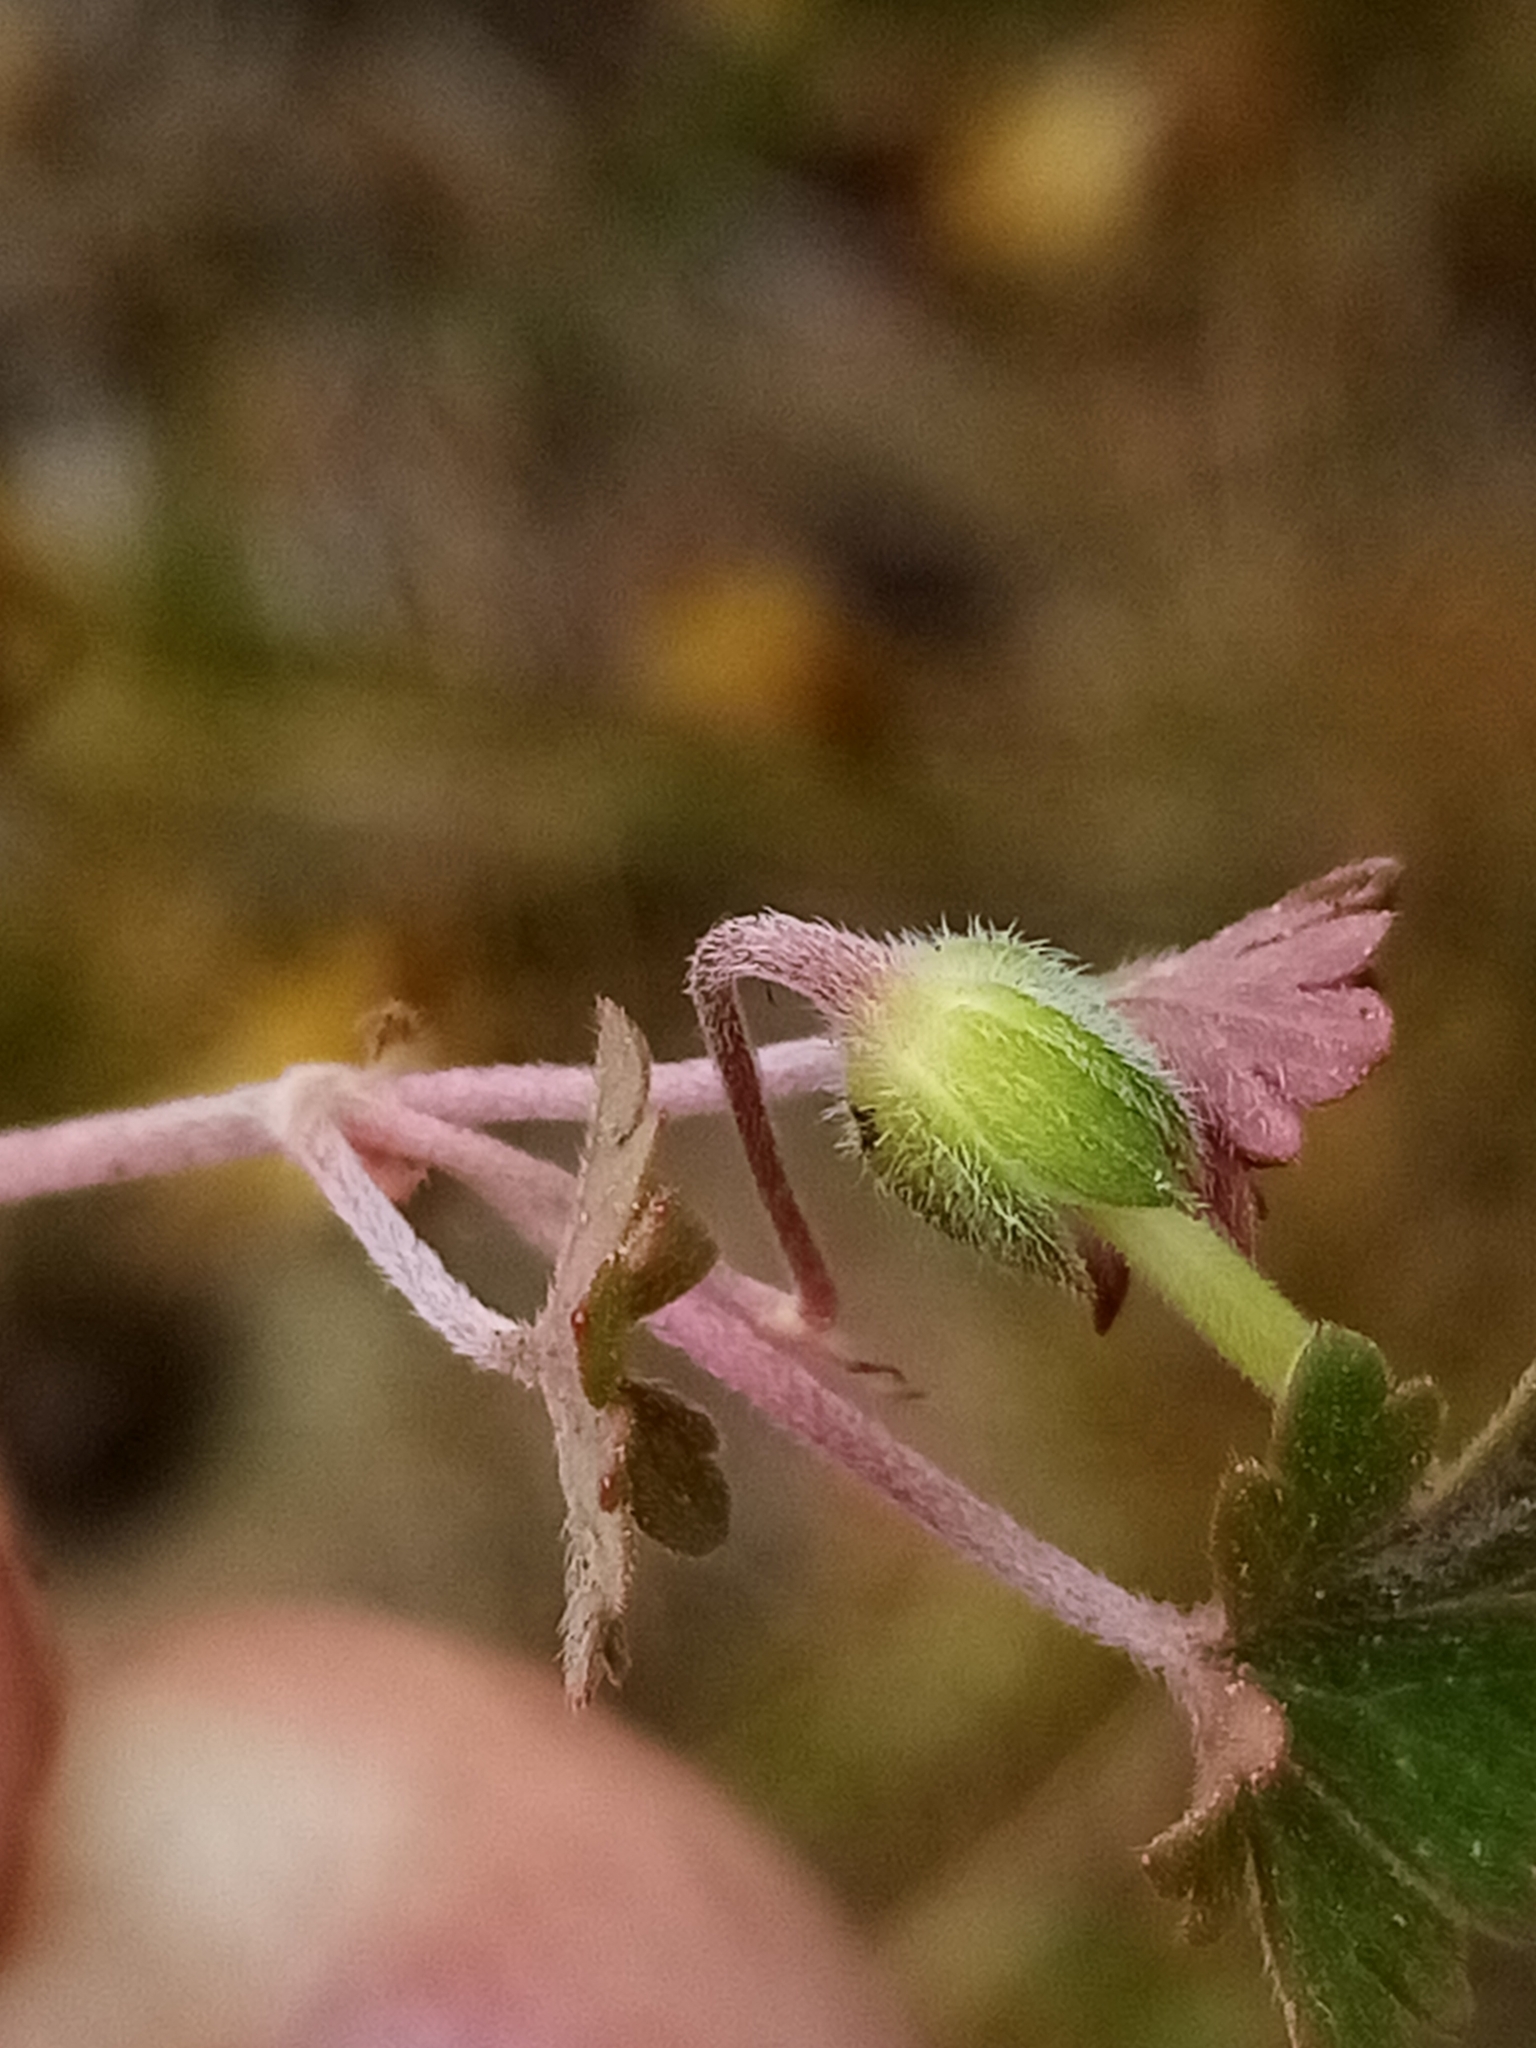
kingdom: Plantae
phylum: Tracheophyta
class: Magnoliopsida
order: Geraniales
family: Geraniaceae
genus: Geranium
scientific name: Geranium brevicaule
